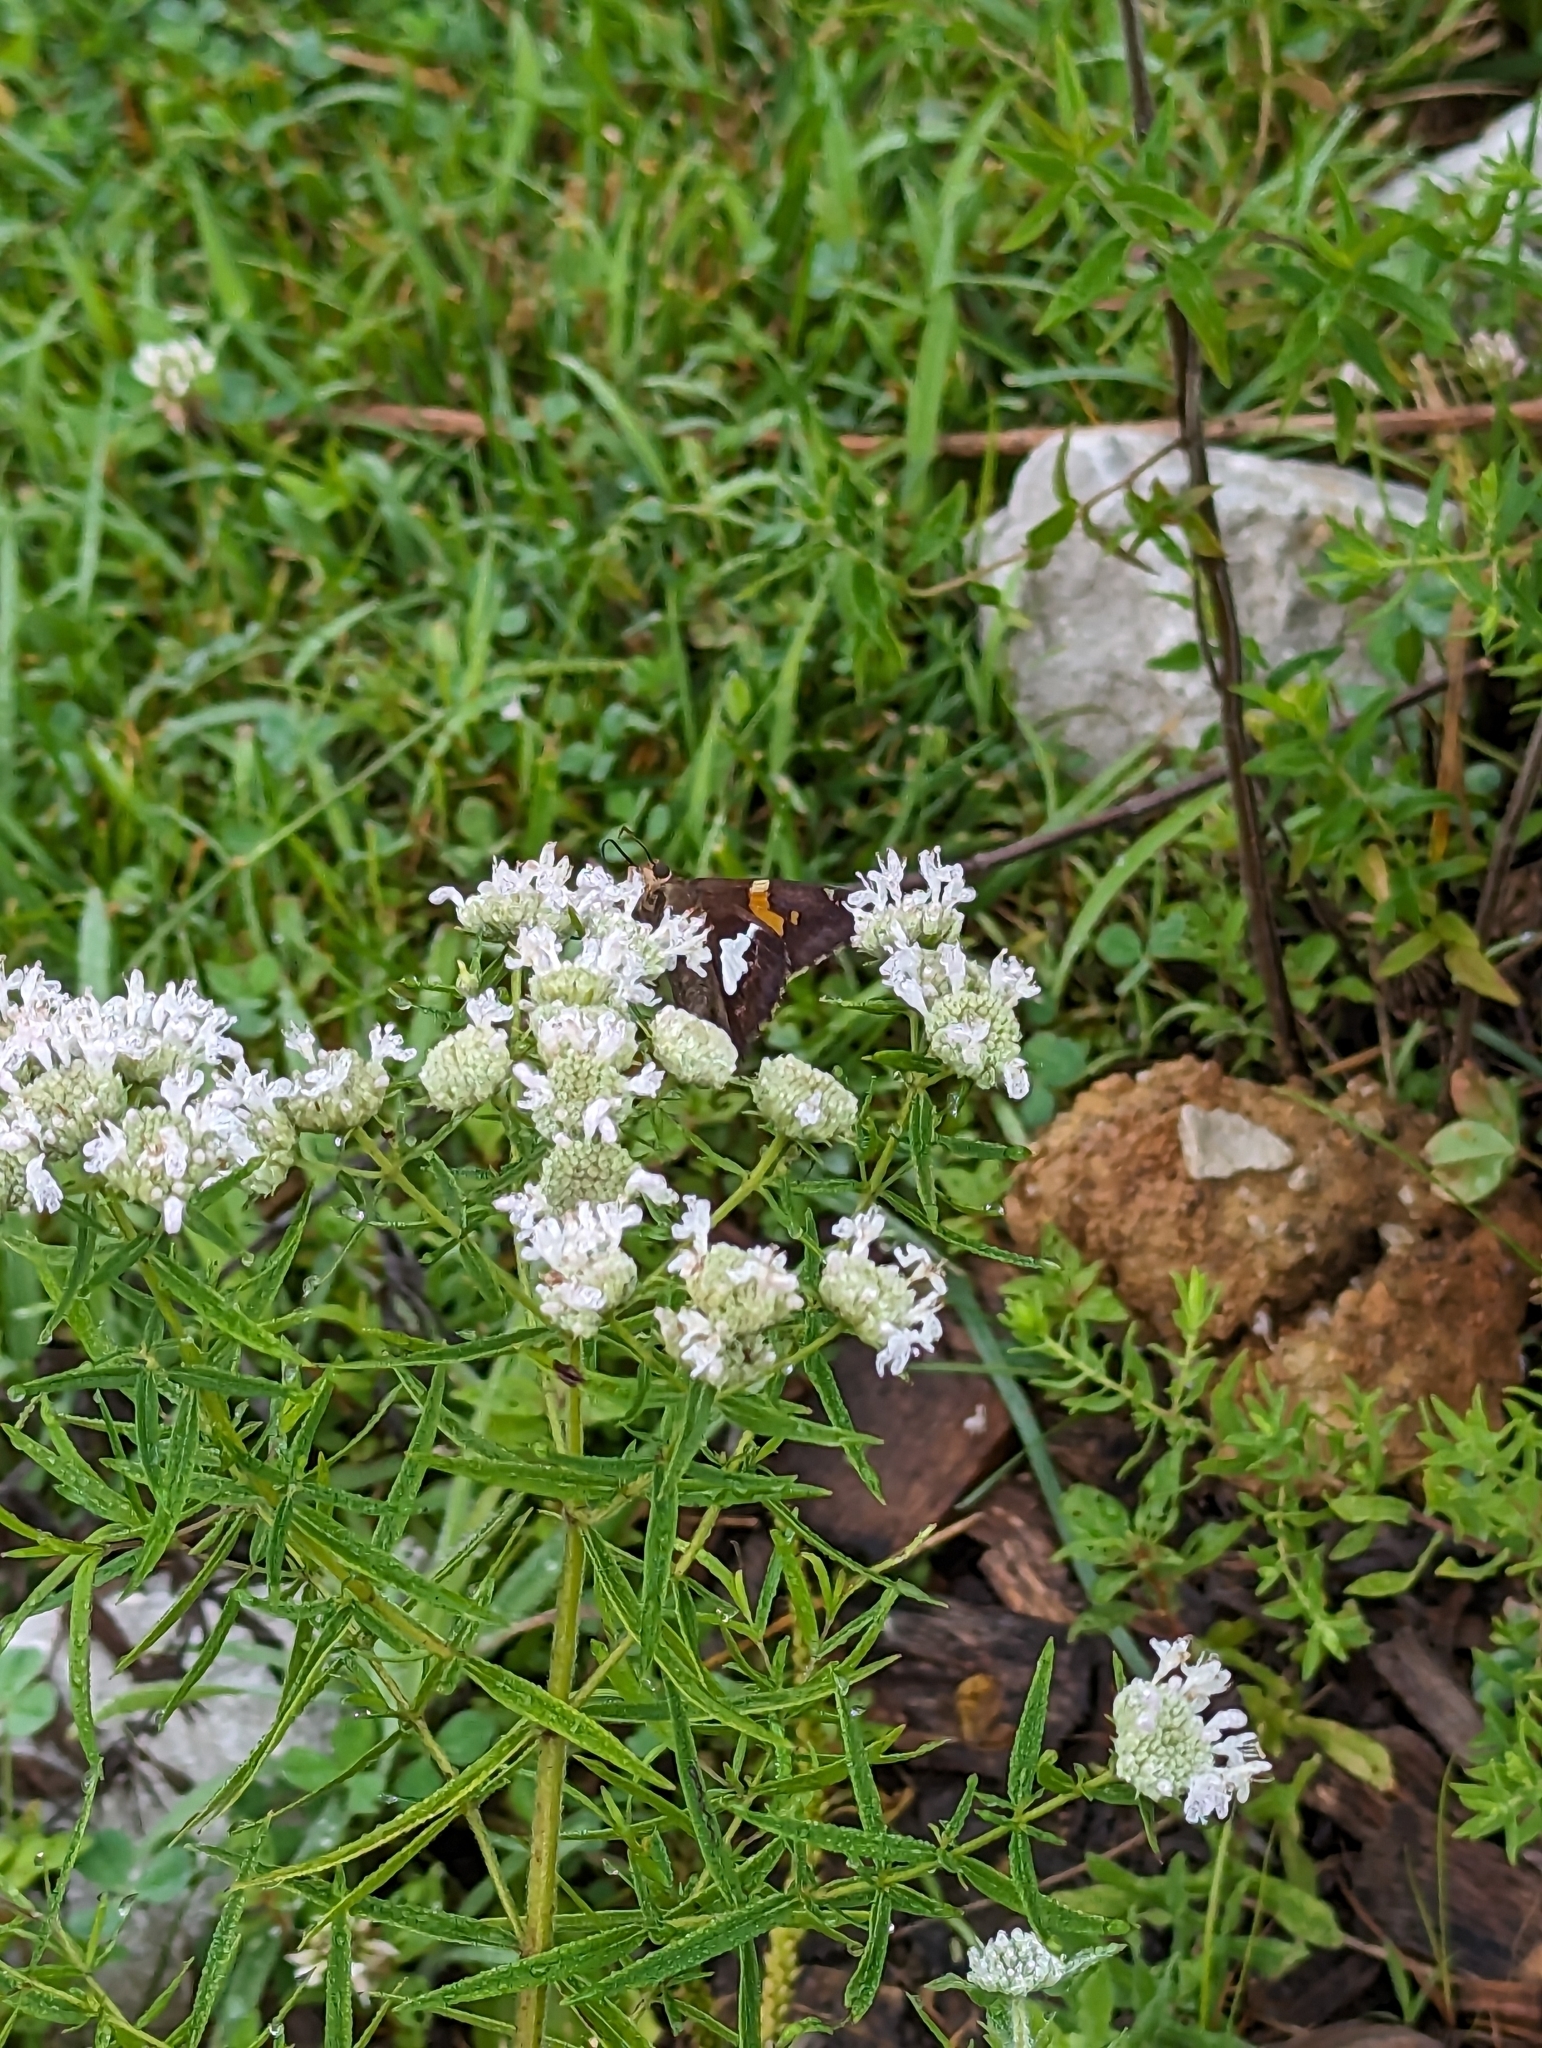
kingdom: Animalia
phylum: Arthropoda
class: Insecta
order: Lepidoptera
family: Hesperiidae
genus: Epargyreus
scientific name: Epargyreus clarus
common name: Silver-spotted skipper
